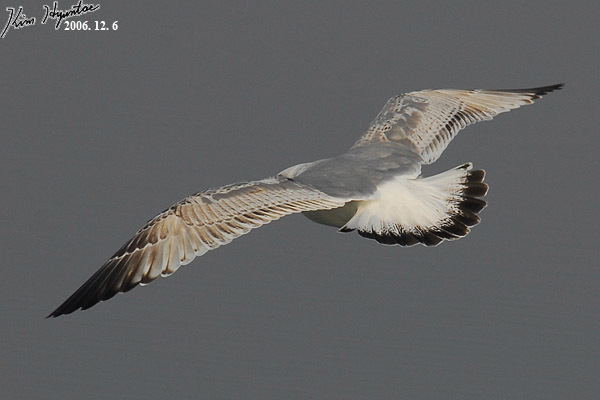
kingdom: Animalia
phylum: Chordata
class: Aves
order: Charadriiformes
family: Laridae
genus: Larus
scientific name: Larus vegae
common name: Vega gull
